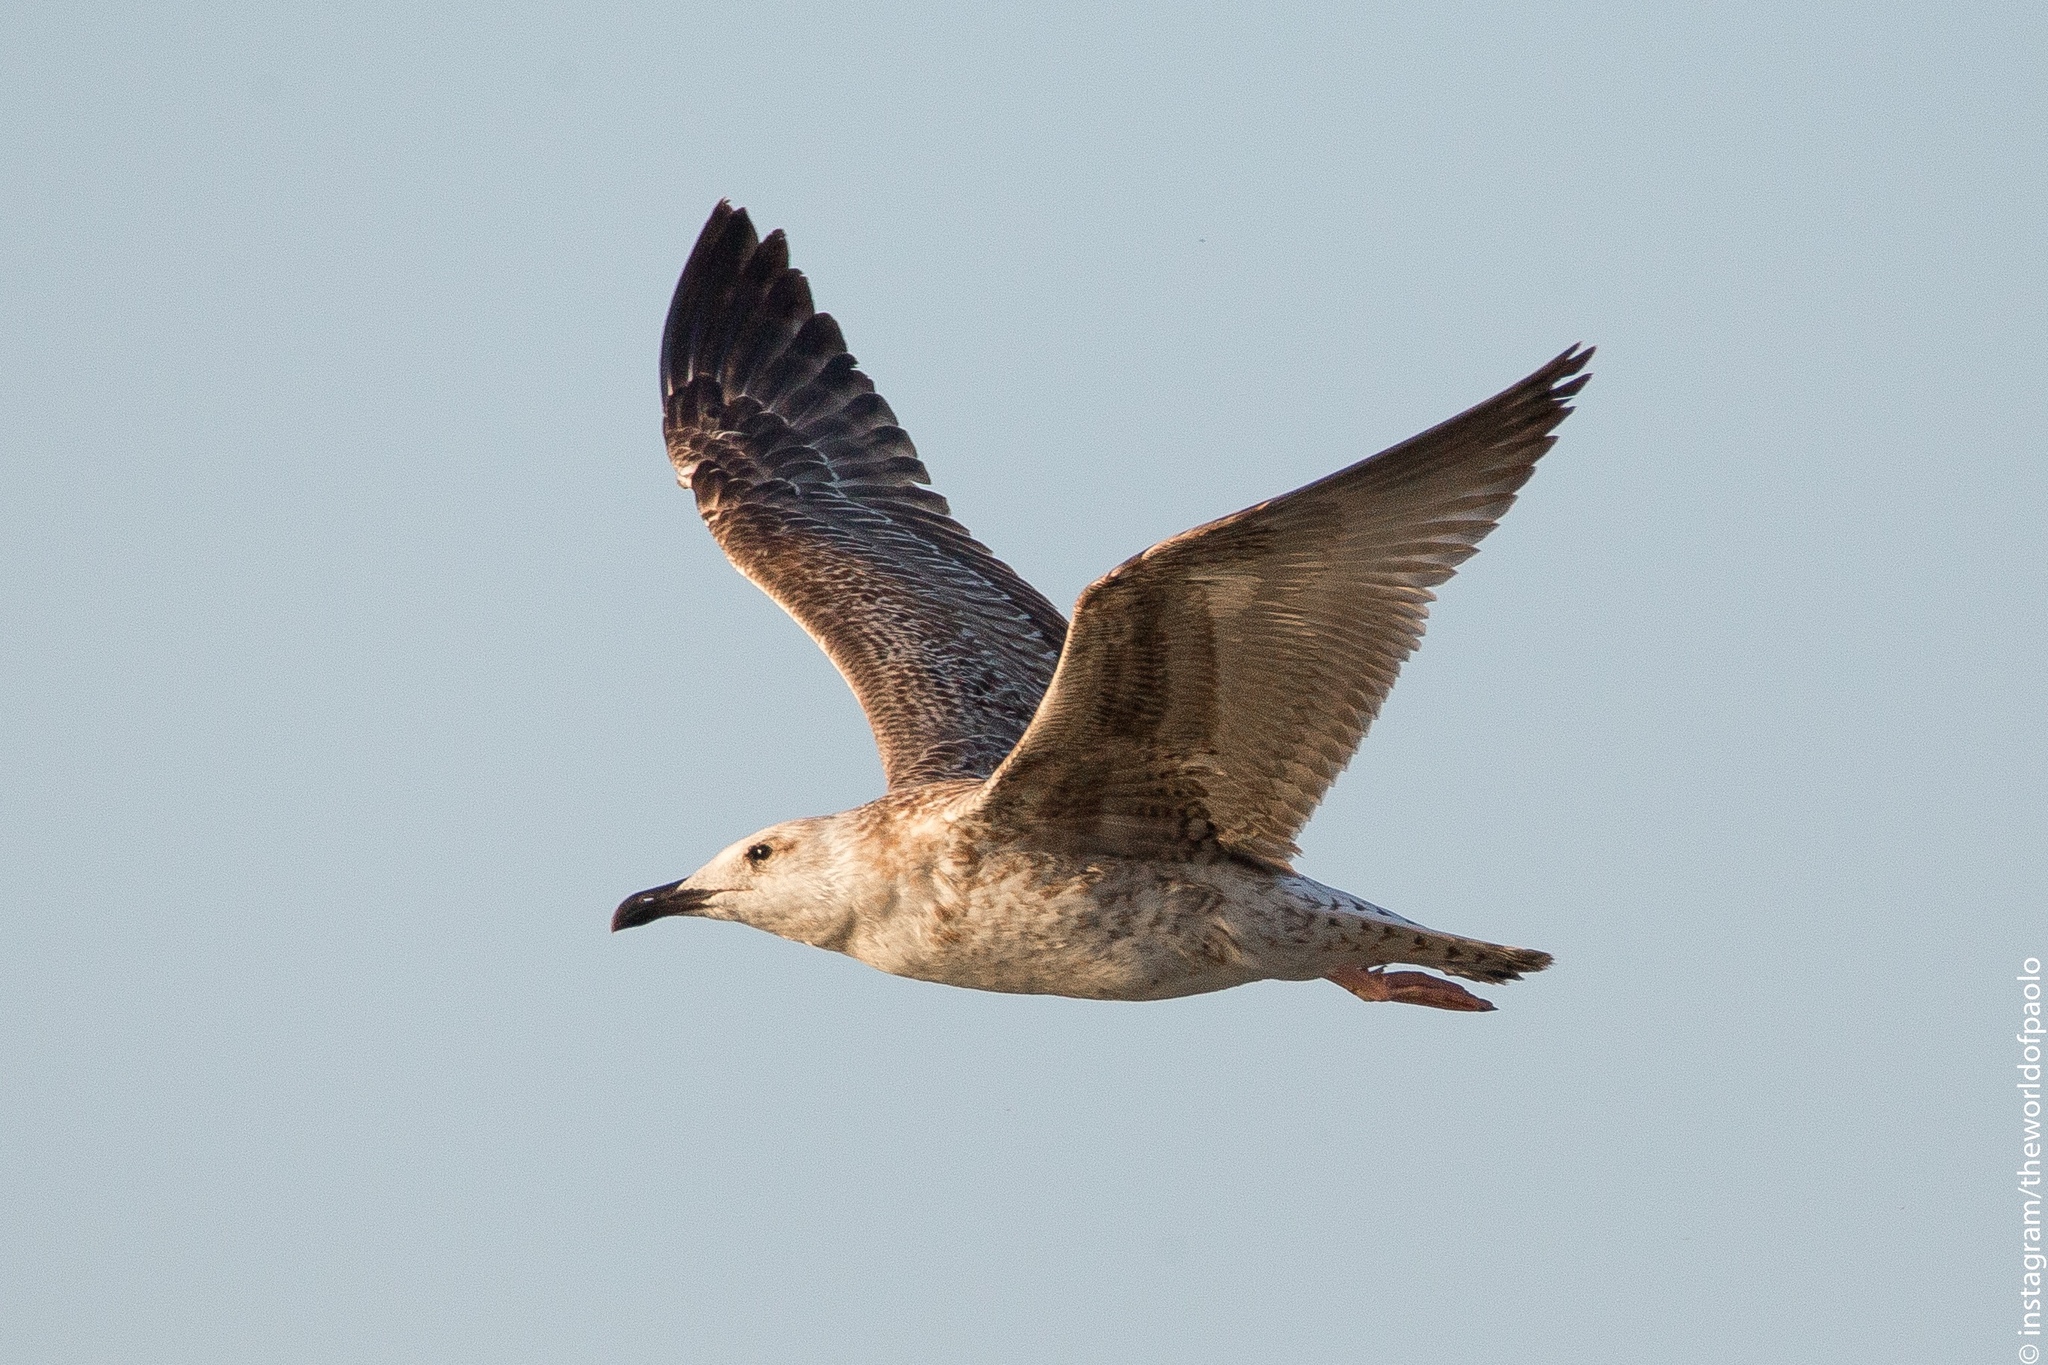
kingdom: Animalia
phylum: Chordata
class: Aves
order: Charadriiformes
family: Laridae
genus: Larus
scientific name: Larus michahellis
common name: Yellow-legged gull
